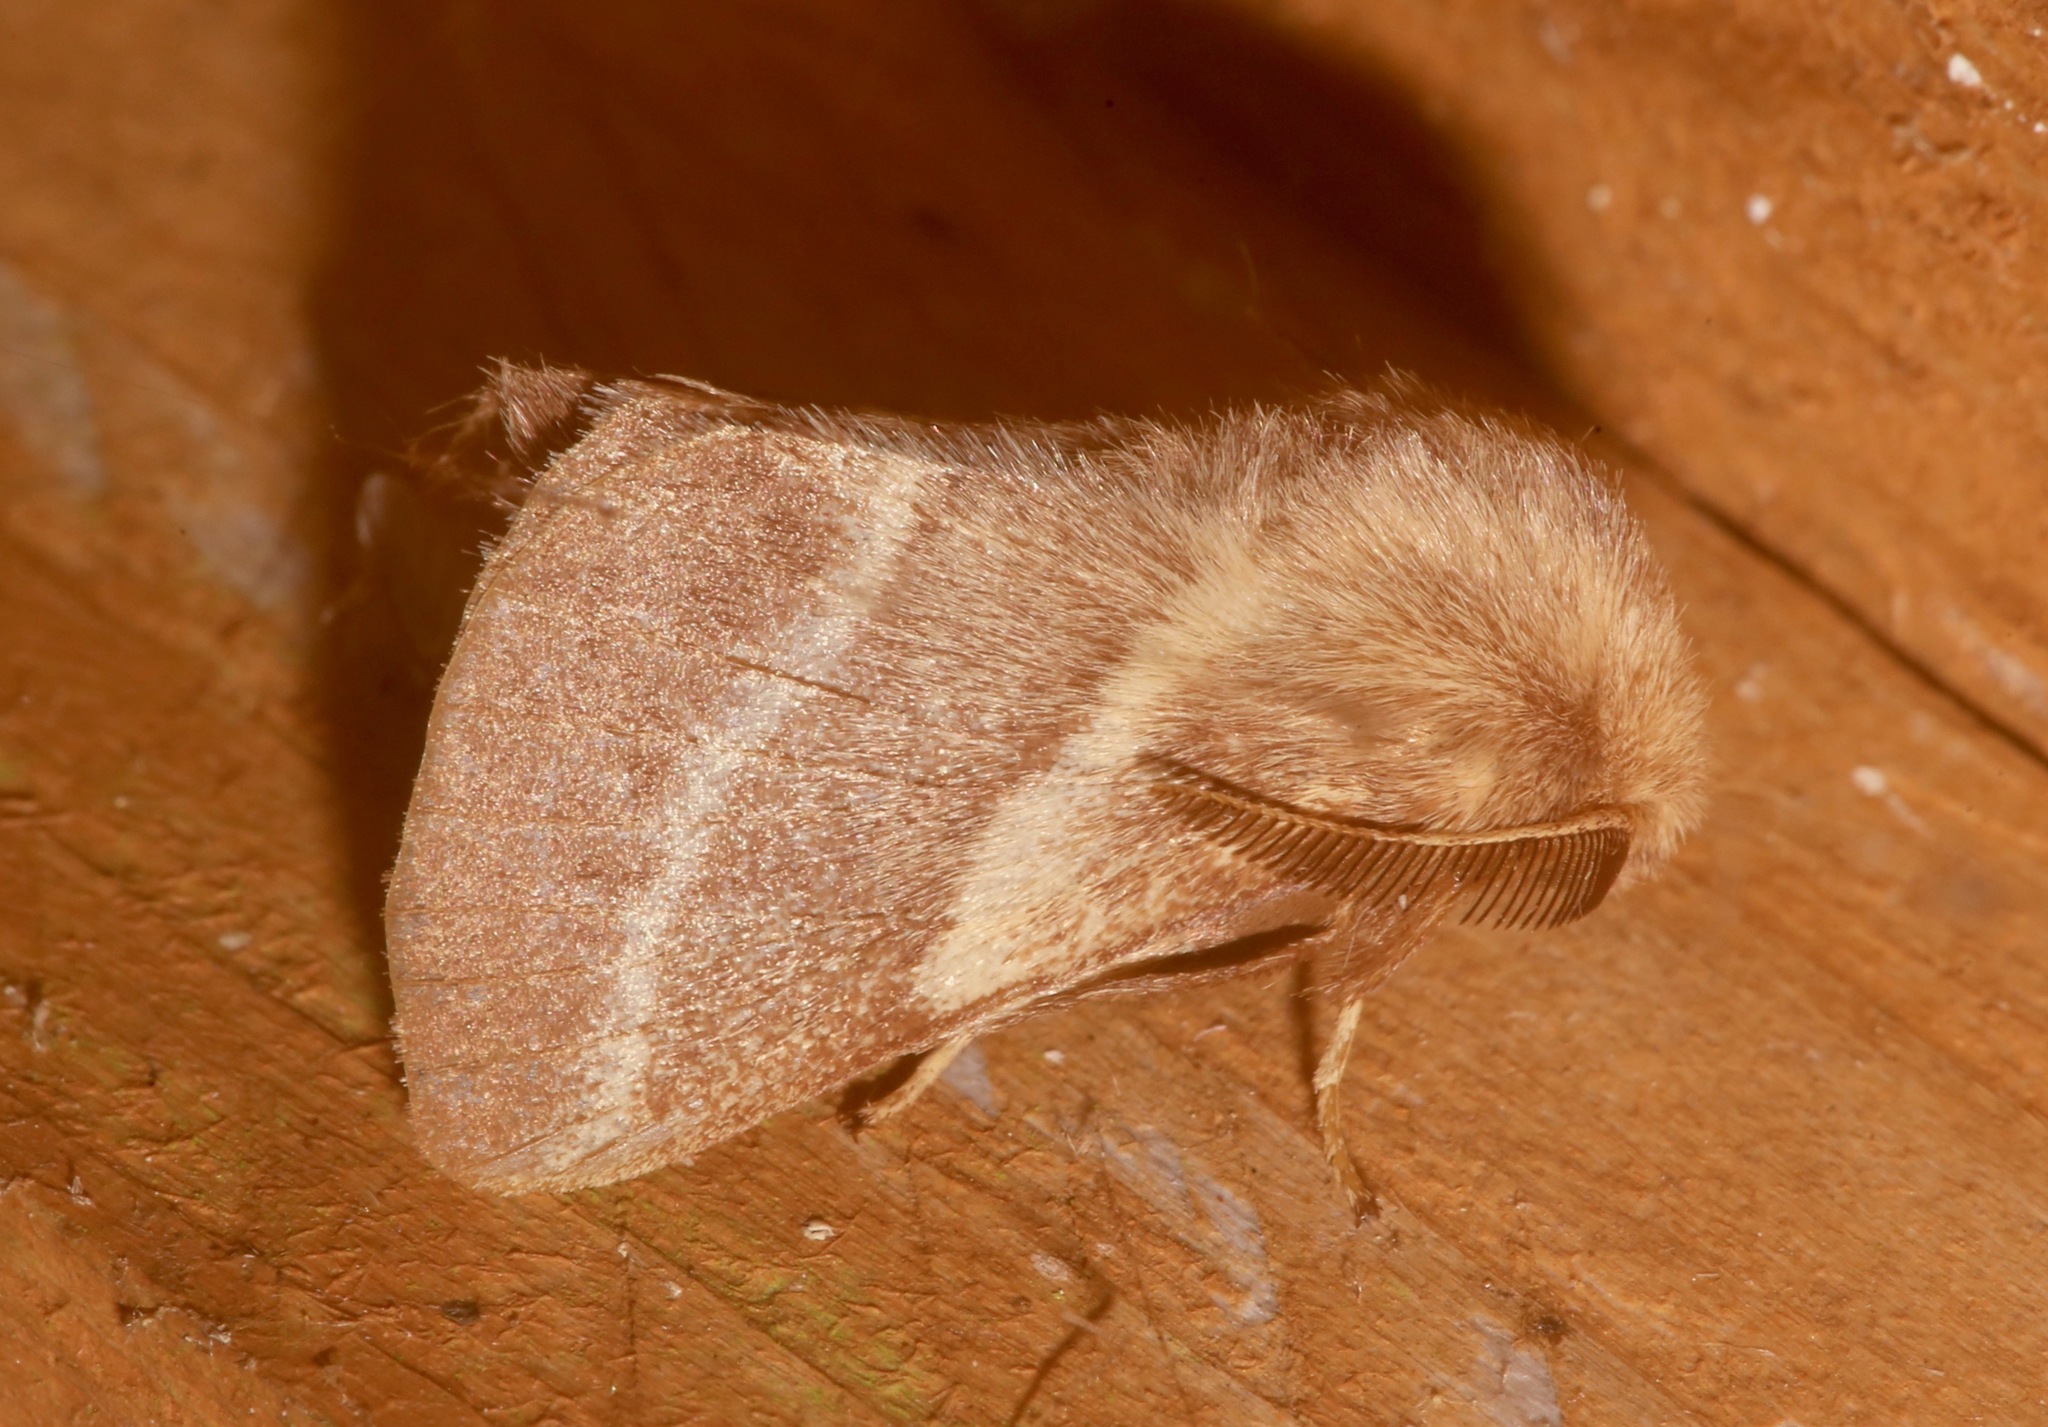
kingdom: Animalia
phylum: Arthropoda
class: Insecta
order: Lepidoptera
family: Lasiocampidae
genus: Malacosoma
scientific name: Malacosoma americana
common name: Eastern tent caterpillar moth
